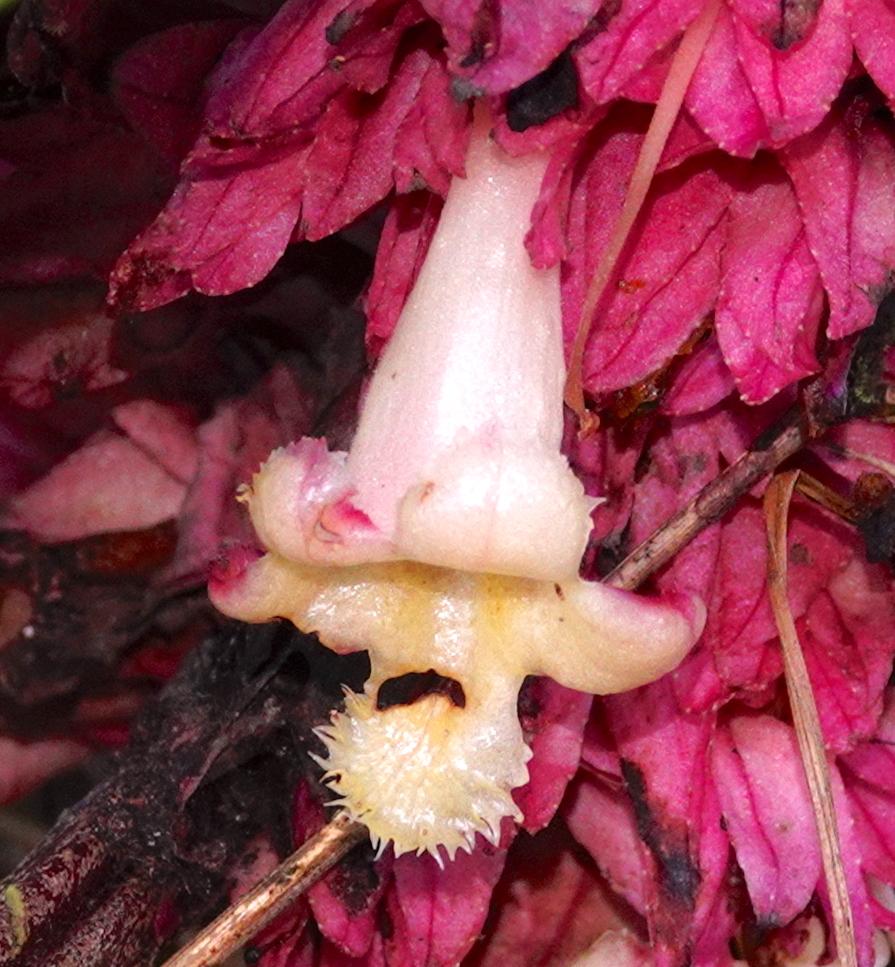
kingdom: Plantae
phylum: Tracheophyta
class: Magnoliopsida
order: Lamiales
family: Gesneriaceae
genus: Drymonia
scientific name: Drymonia turrialvae
